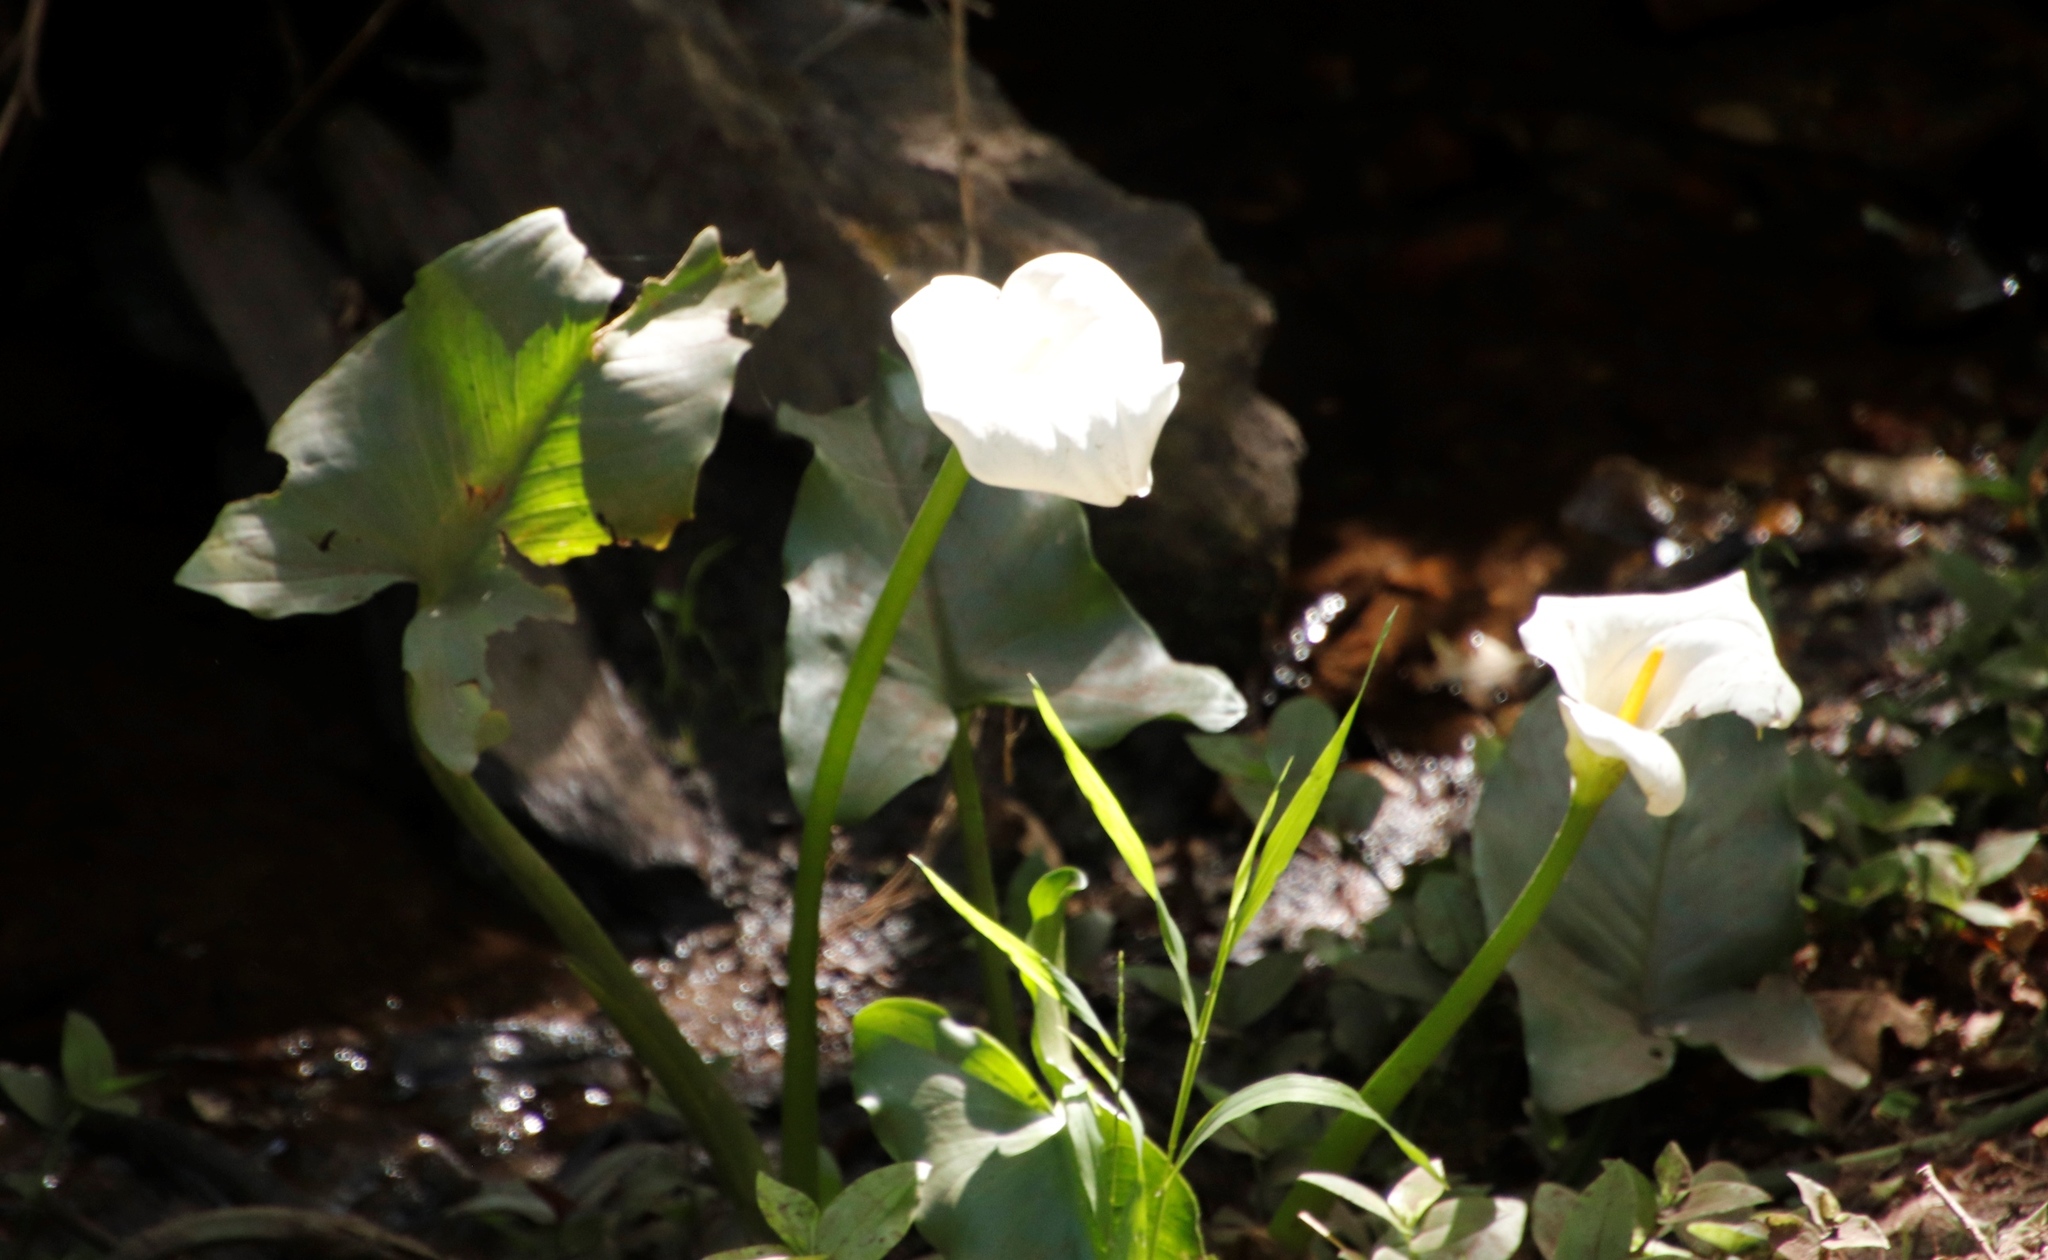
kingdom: Plantae
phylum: Tracheophyta
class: Liliopsida
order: Alismatales
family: Araceae
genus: Zantedeschia
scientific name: Zantedeschia aethiopica
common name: Altar-lily
